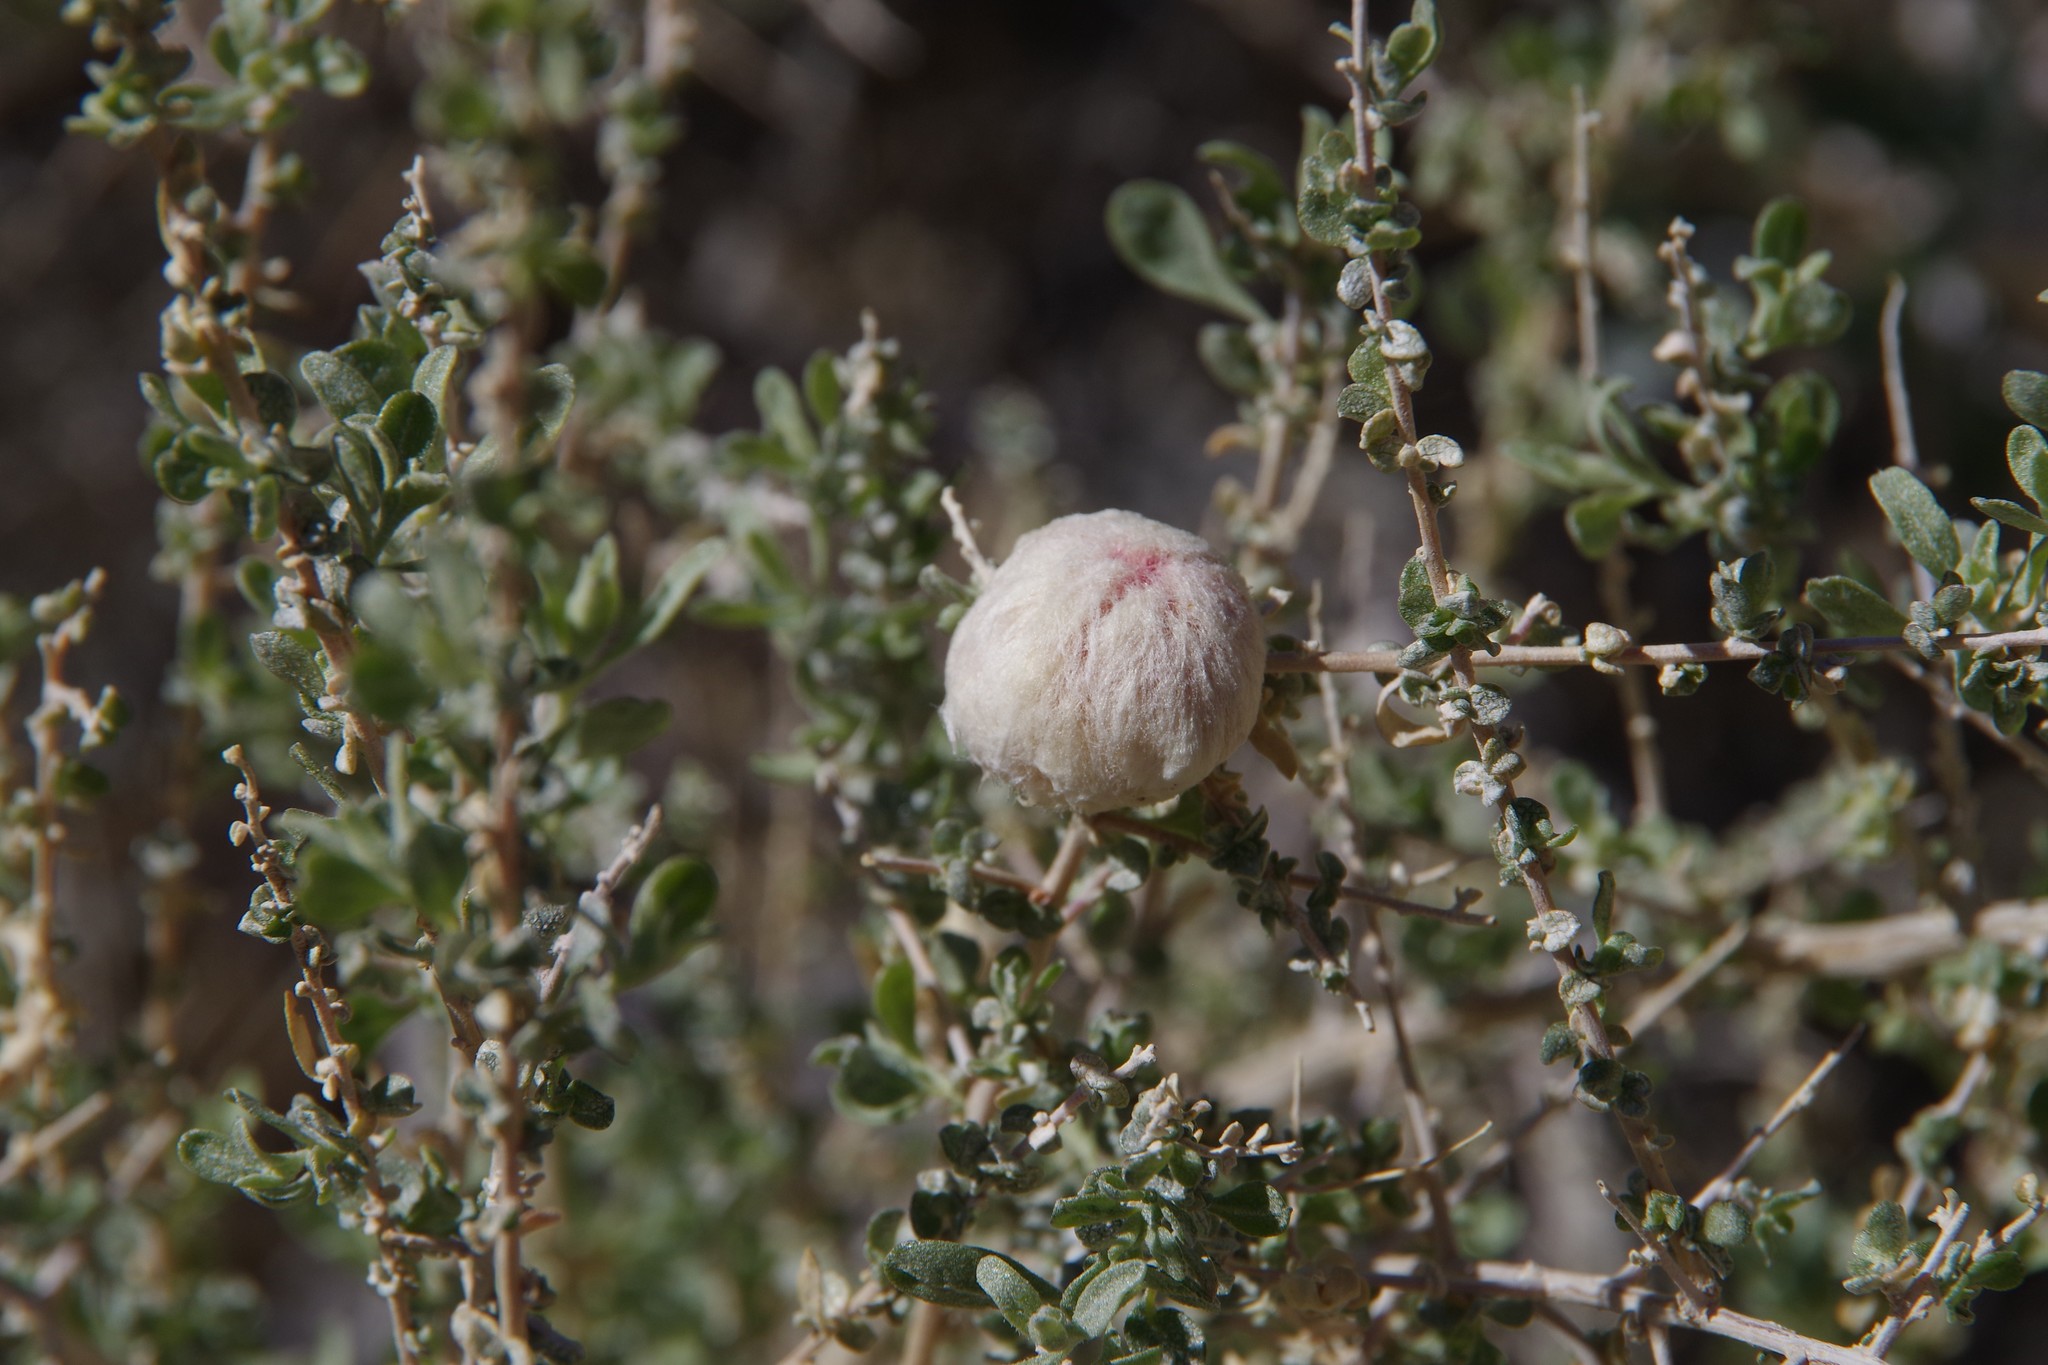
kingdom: Animalia
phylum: Arthropoda
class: Insecta
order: Diptera
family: Cecidomyiidae
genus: Asphondylia
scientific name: Asphondylia floccosa
